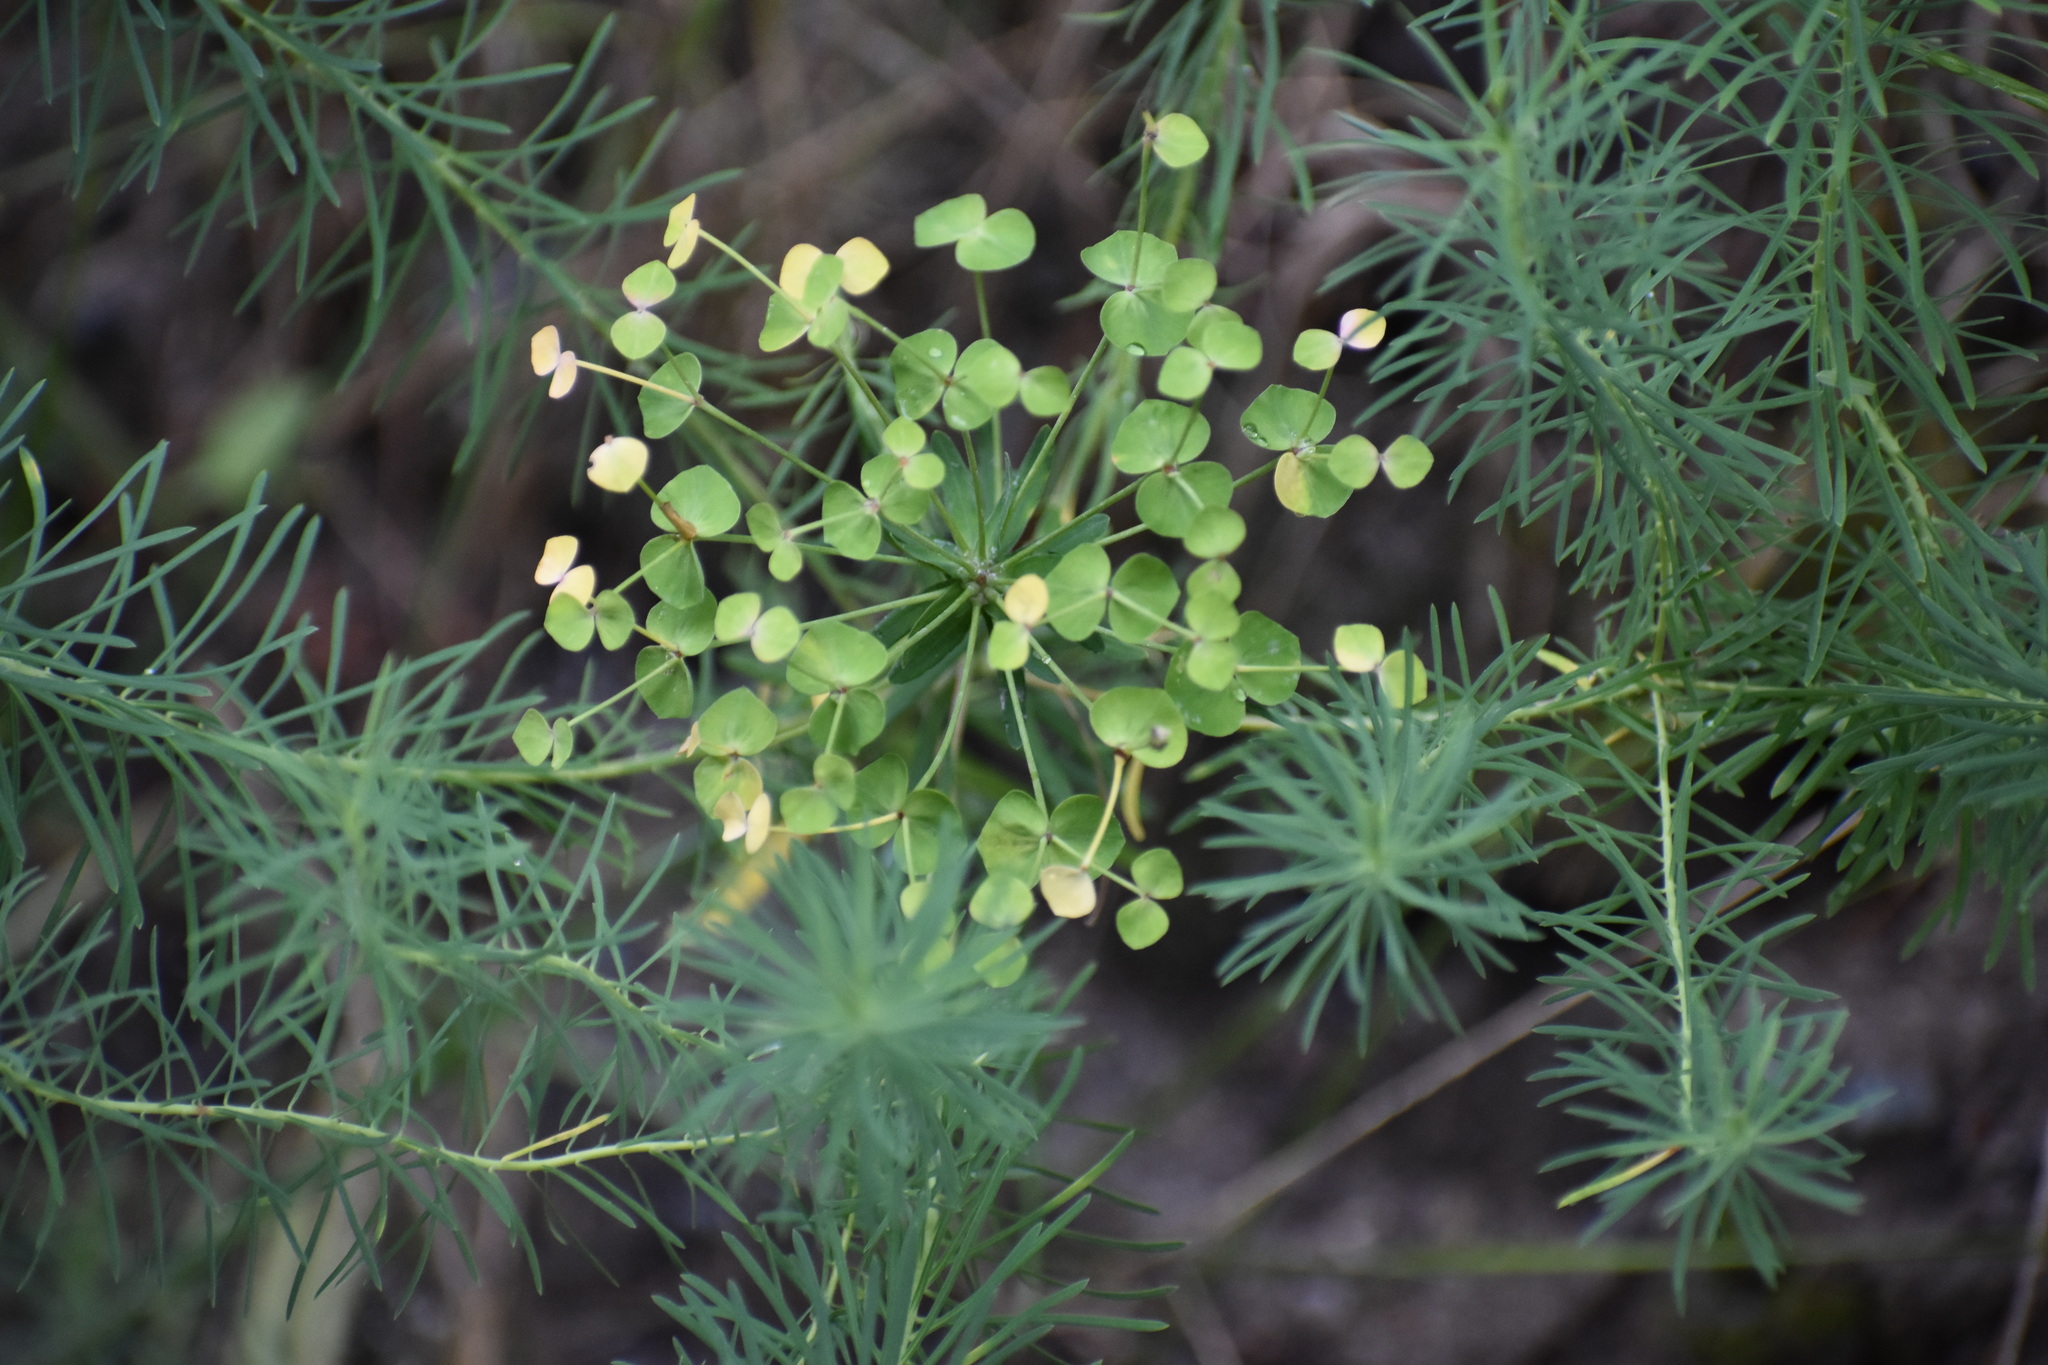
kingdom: Plantae
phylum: Tracheophyta
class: Magnoliopsida
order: Malpighiales
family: Euphorbiaceae
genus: Euphorbia
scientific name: Euphorbia cyparissias
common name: Cypress spurge
